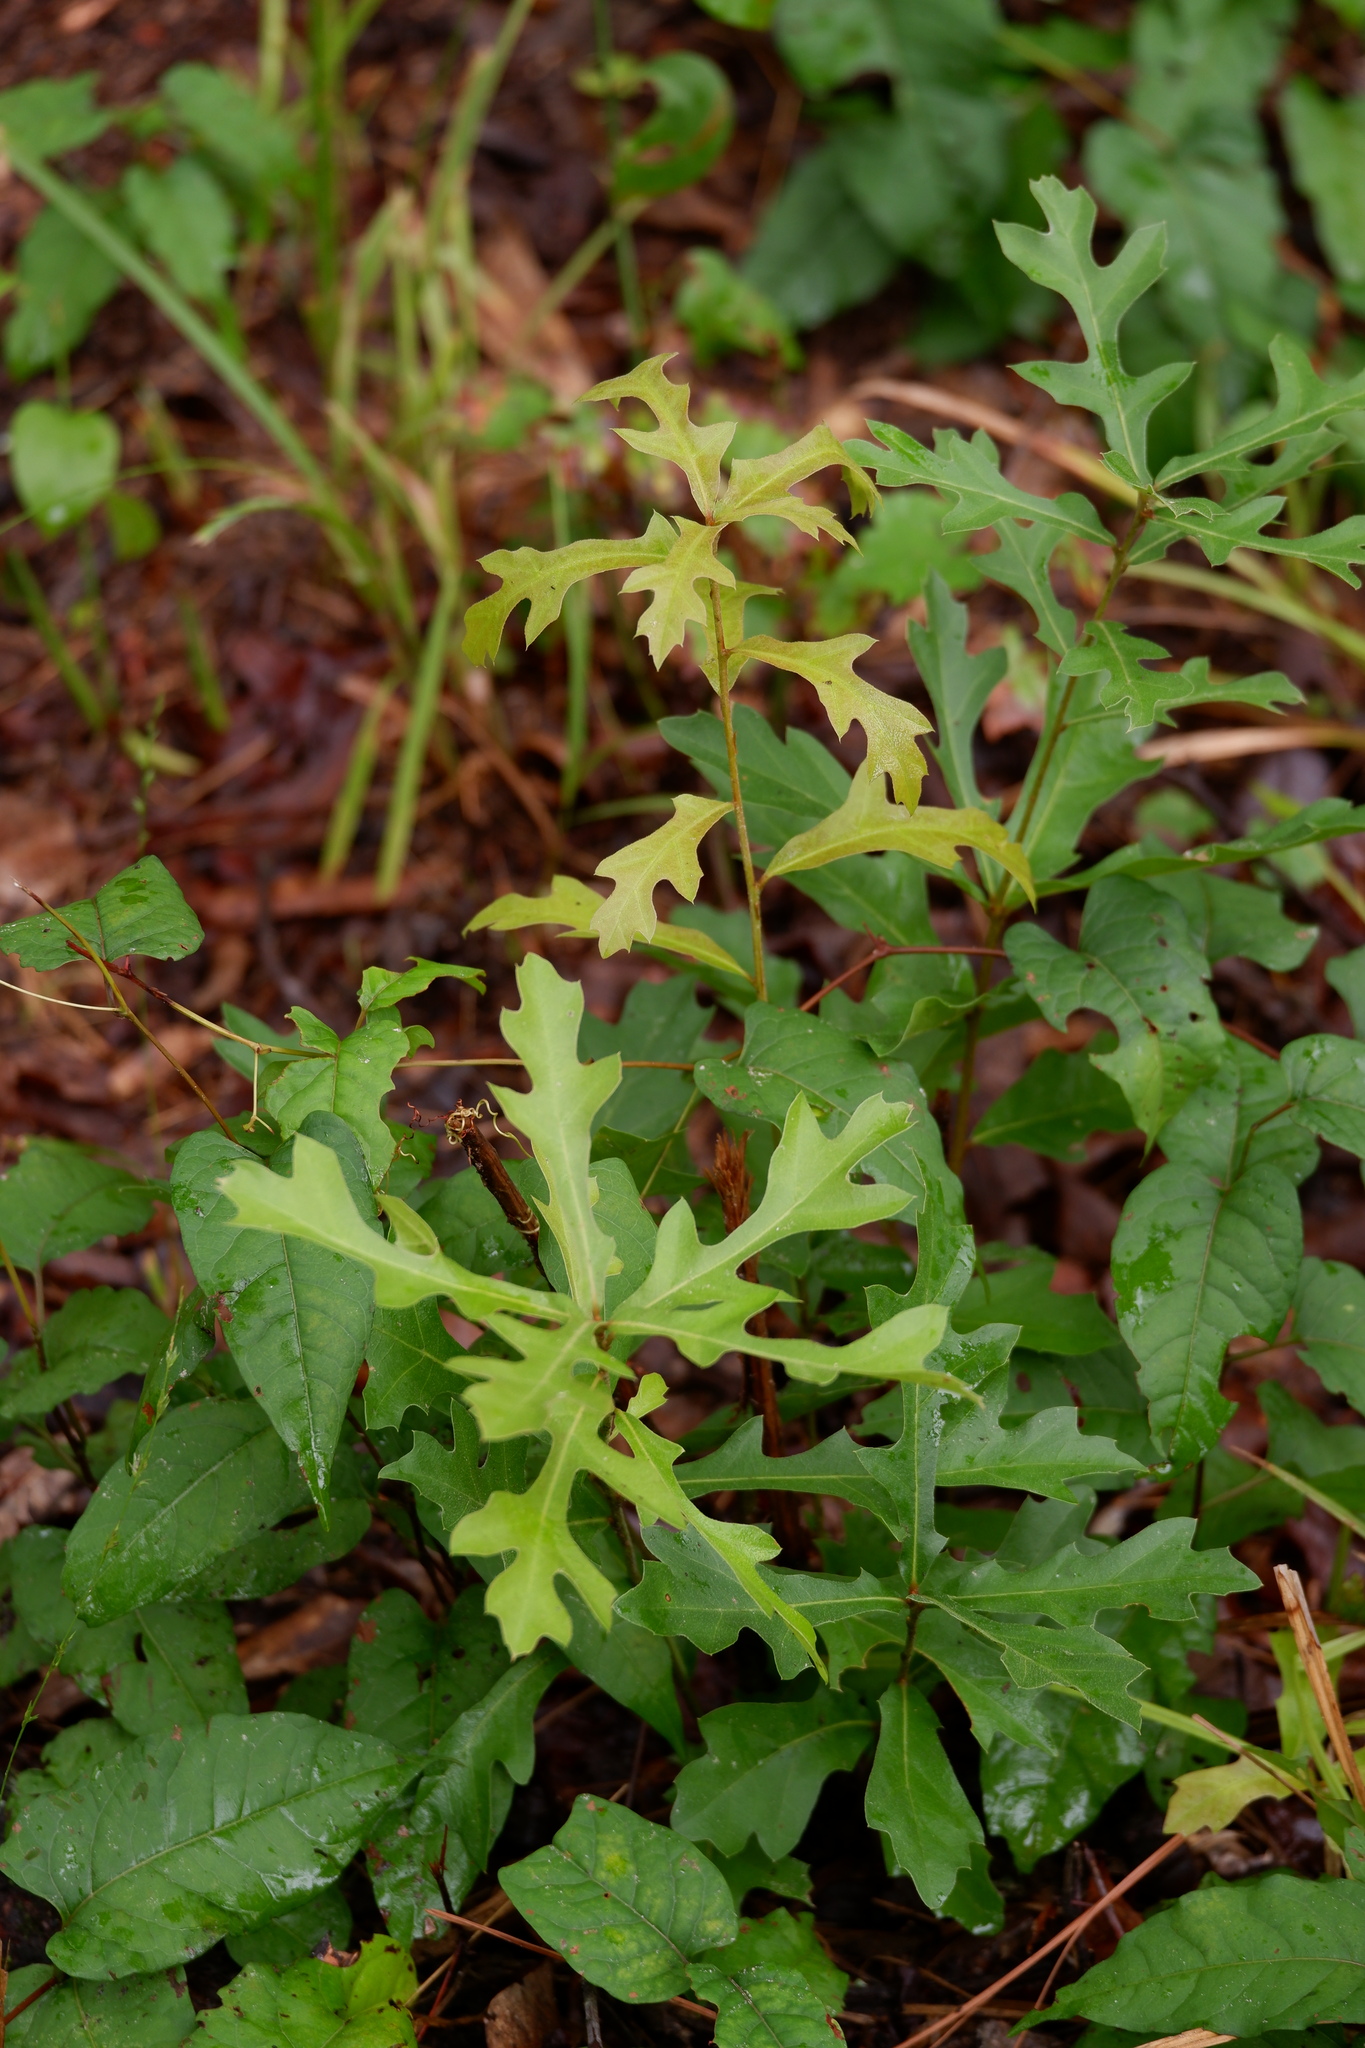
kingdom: Plantae
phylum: Tracheophyta
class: Magnoliopsida
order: Fagales
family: Fagaceae
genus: Quercus
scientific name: Quercus nigra
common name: Water oak
